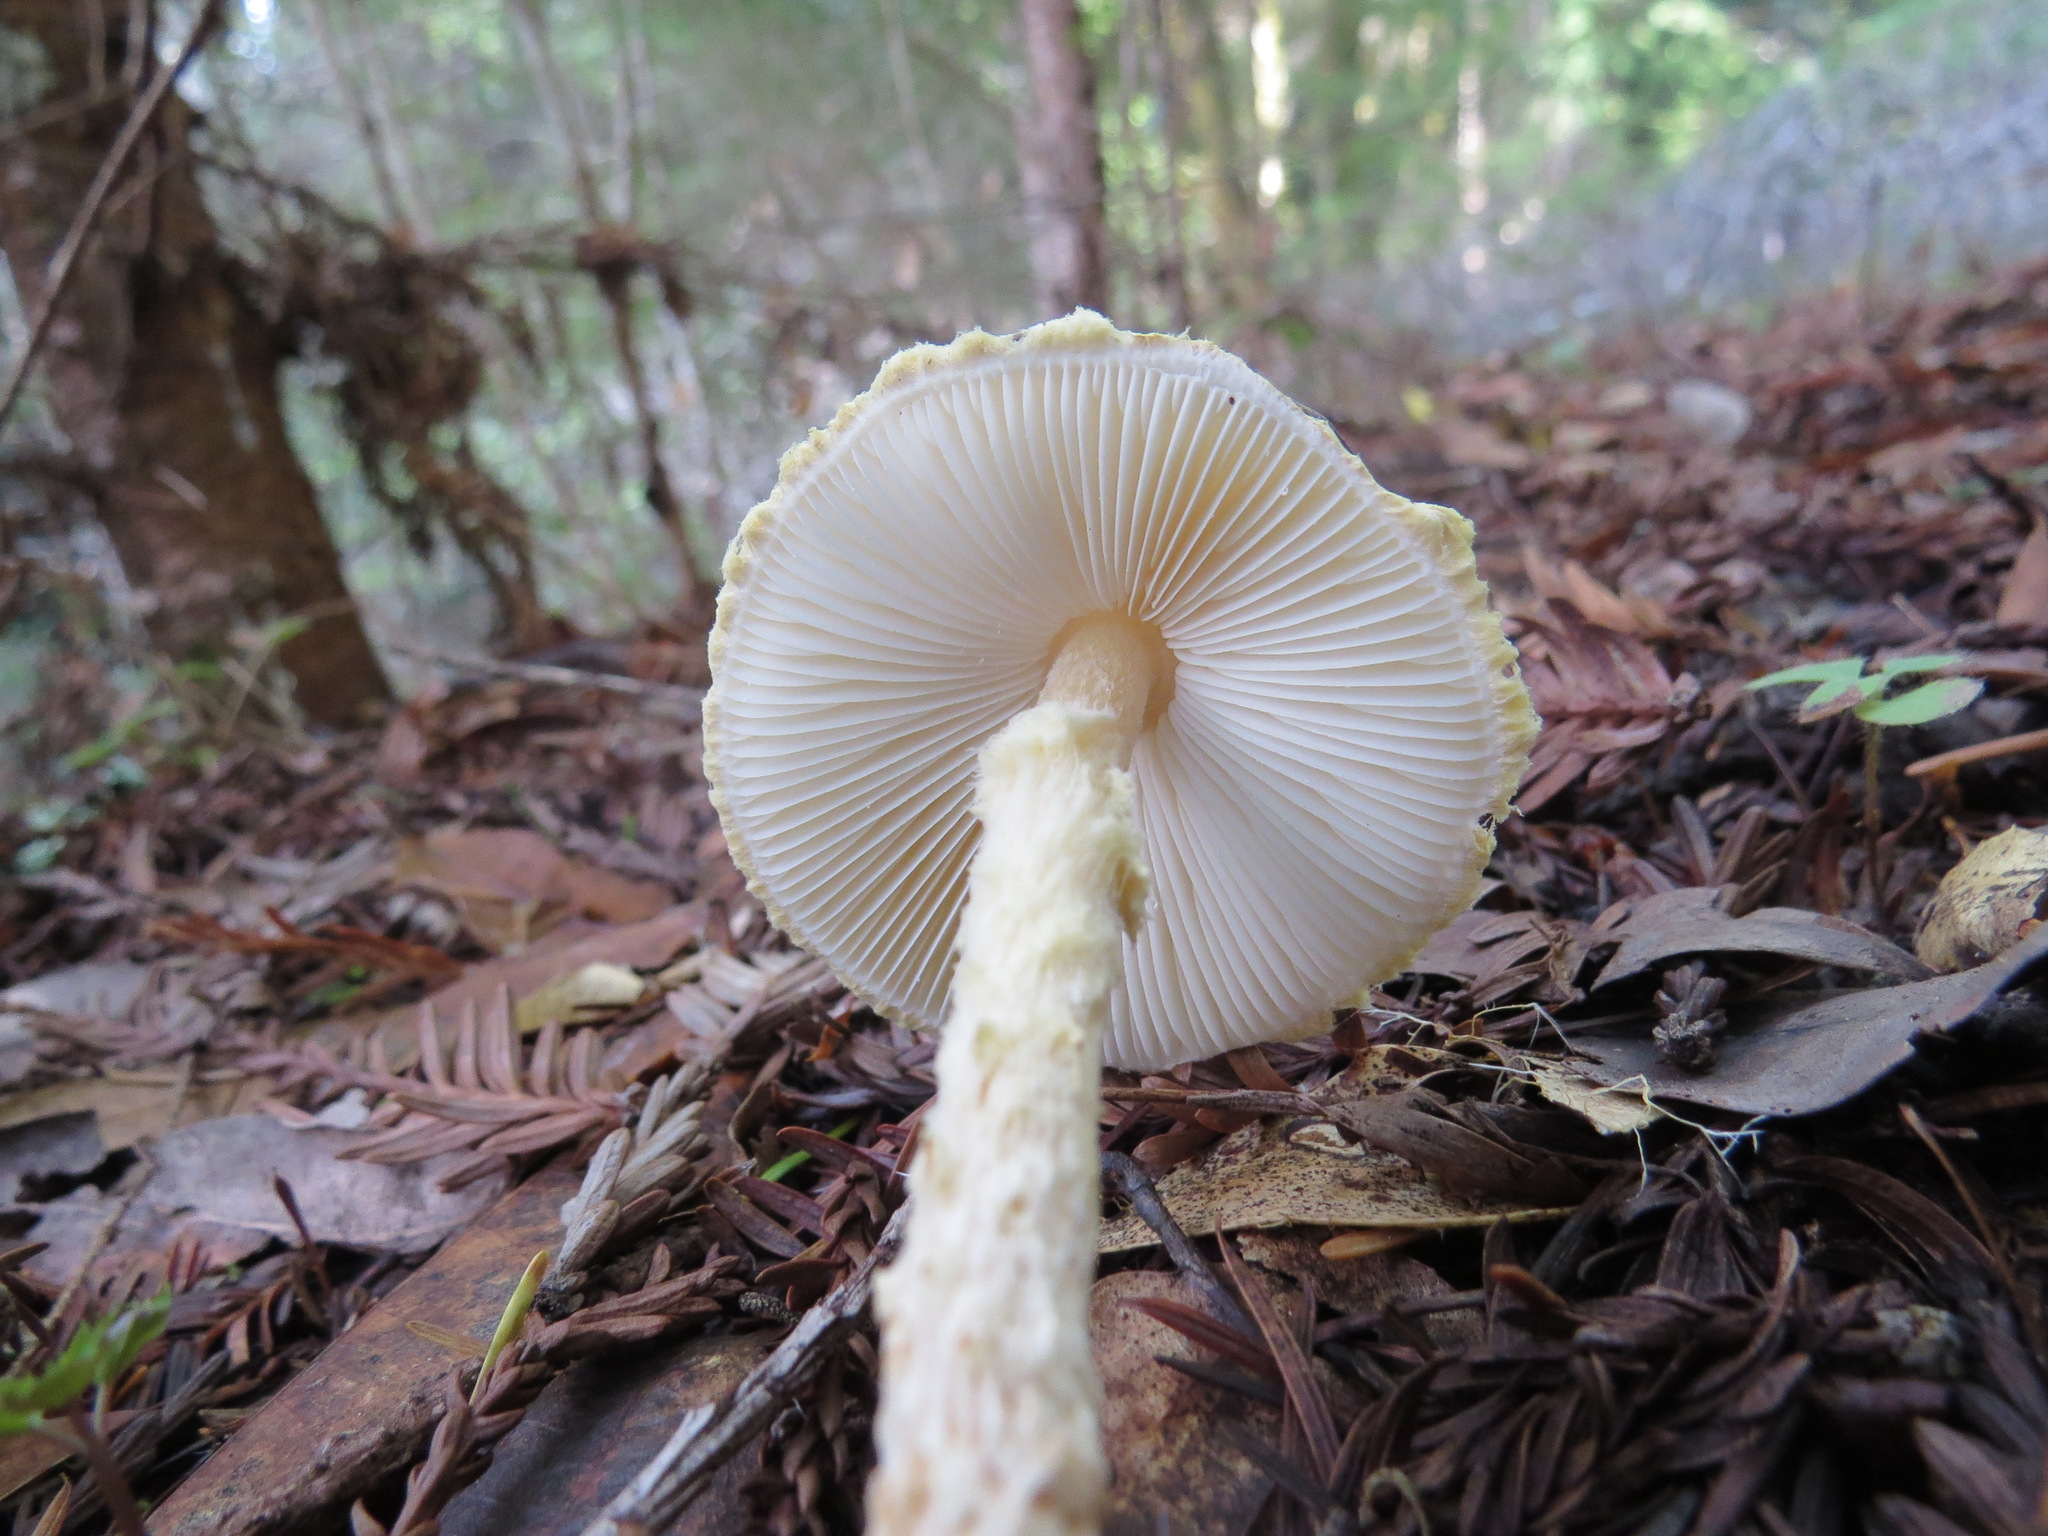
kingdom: Fungi
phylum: Basidiomycota
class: Agaricomycetes
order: Agaricales
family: Agaricaceae
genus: Lepiota
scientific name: Lepiota magnispora
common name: Yellowfoot dapperling
